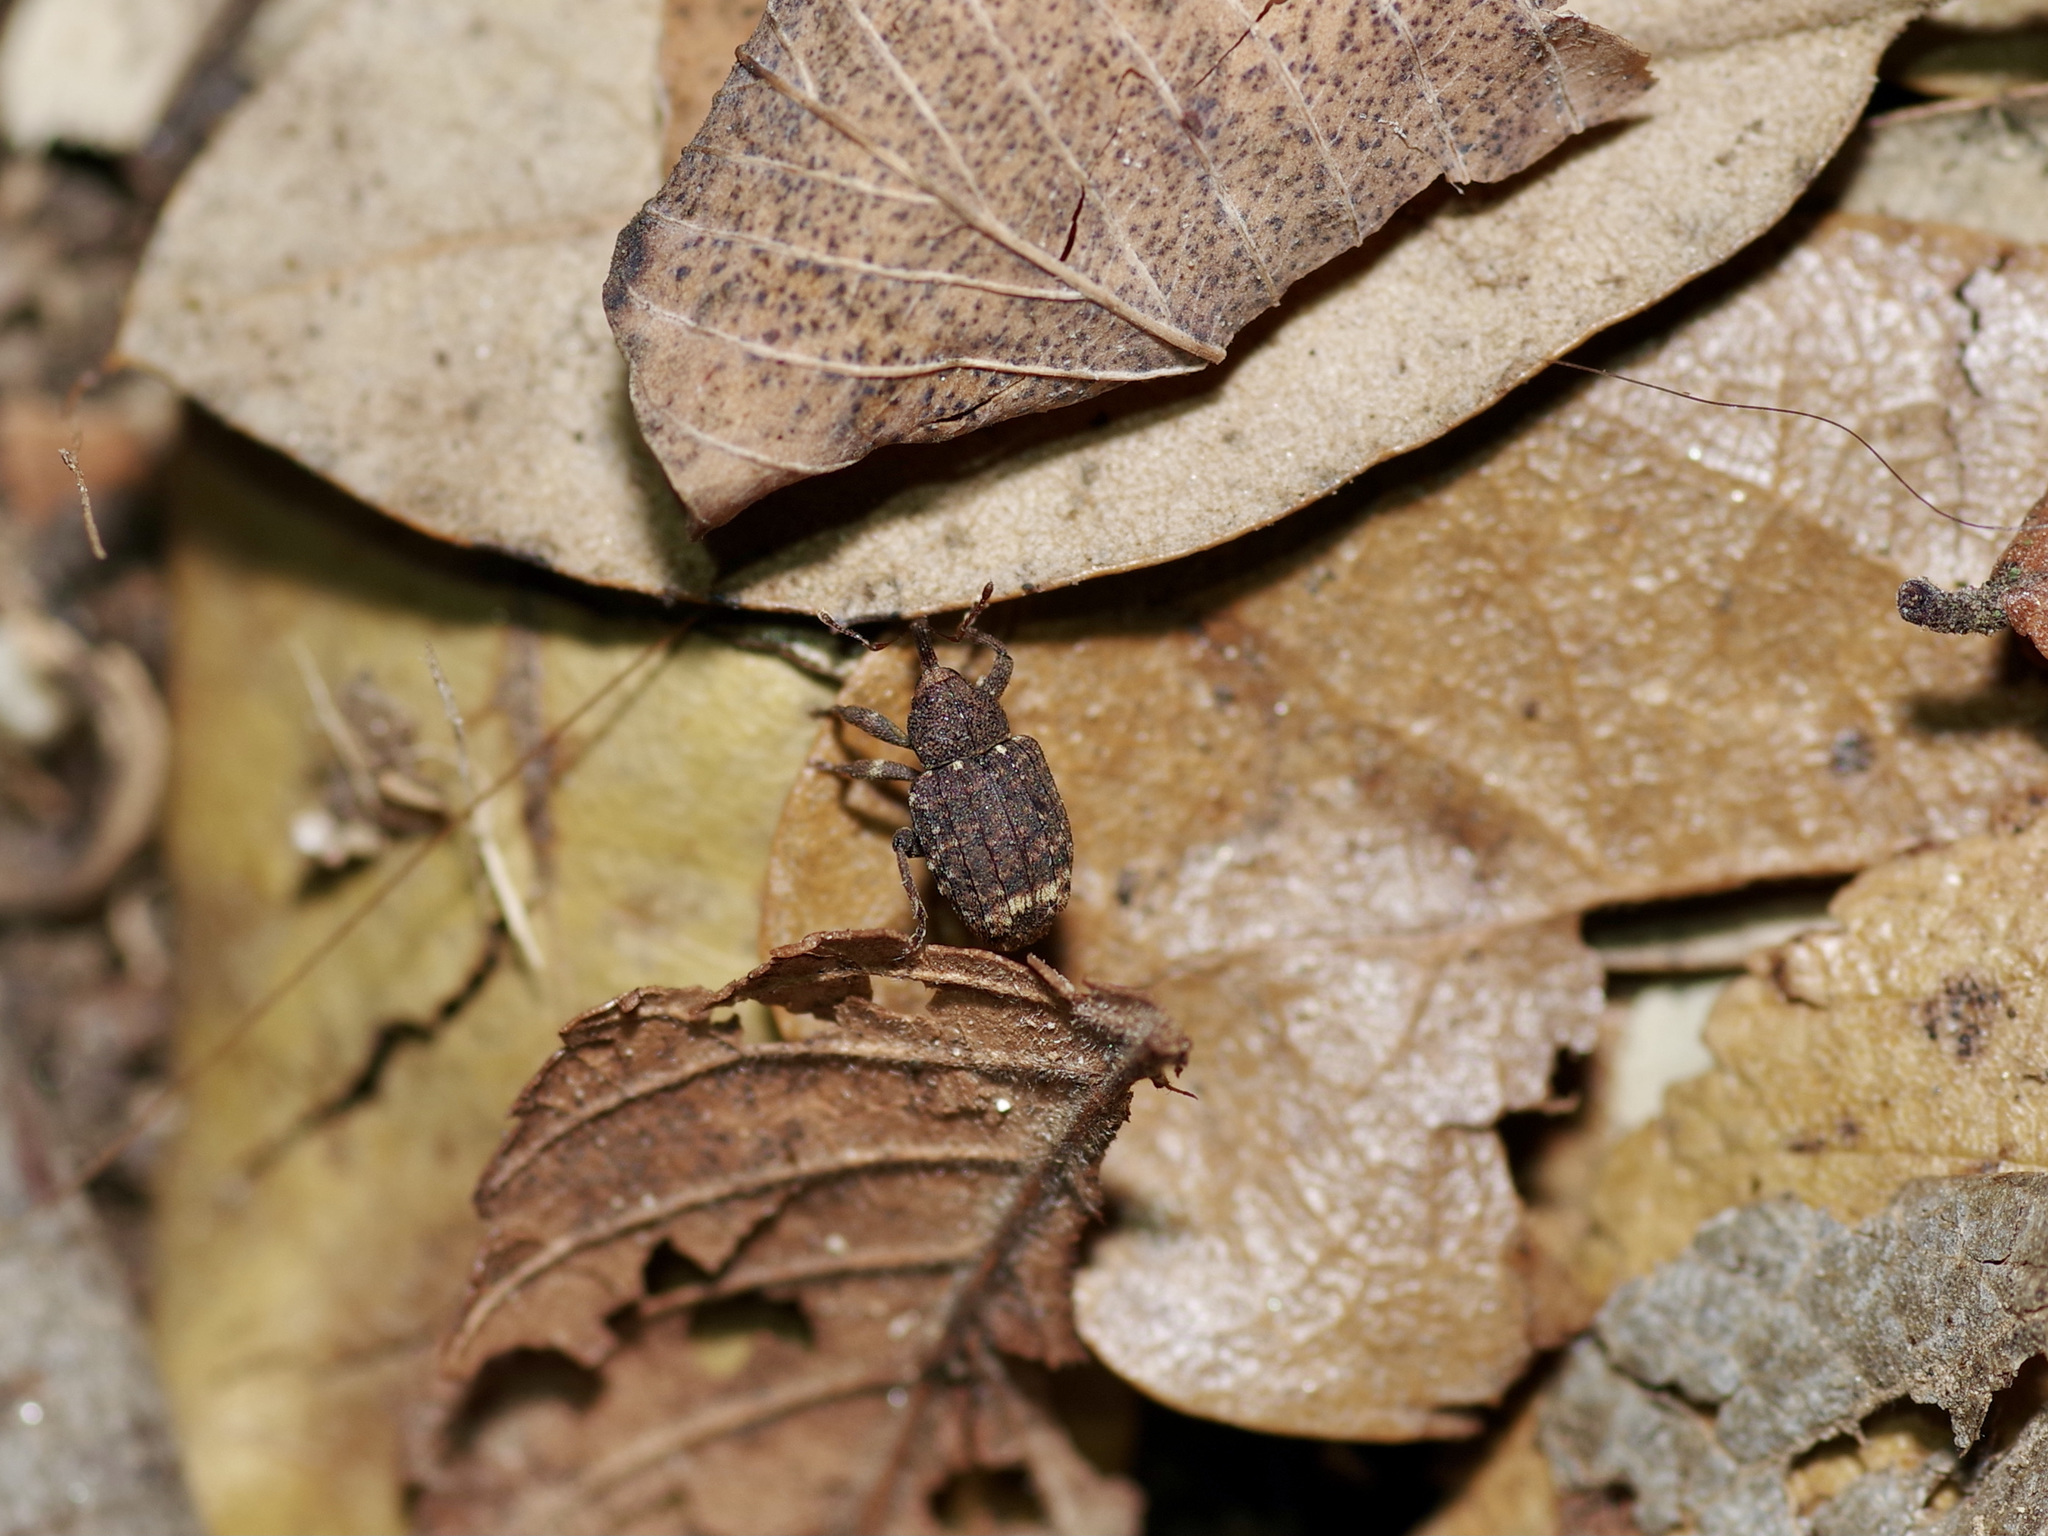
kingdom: Animalia
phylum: Arthropoda
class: Insecta
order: Coleoptera
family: Curculionidae
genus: Conotrachelus
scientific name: Conotrachelus posticatus
